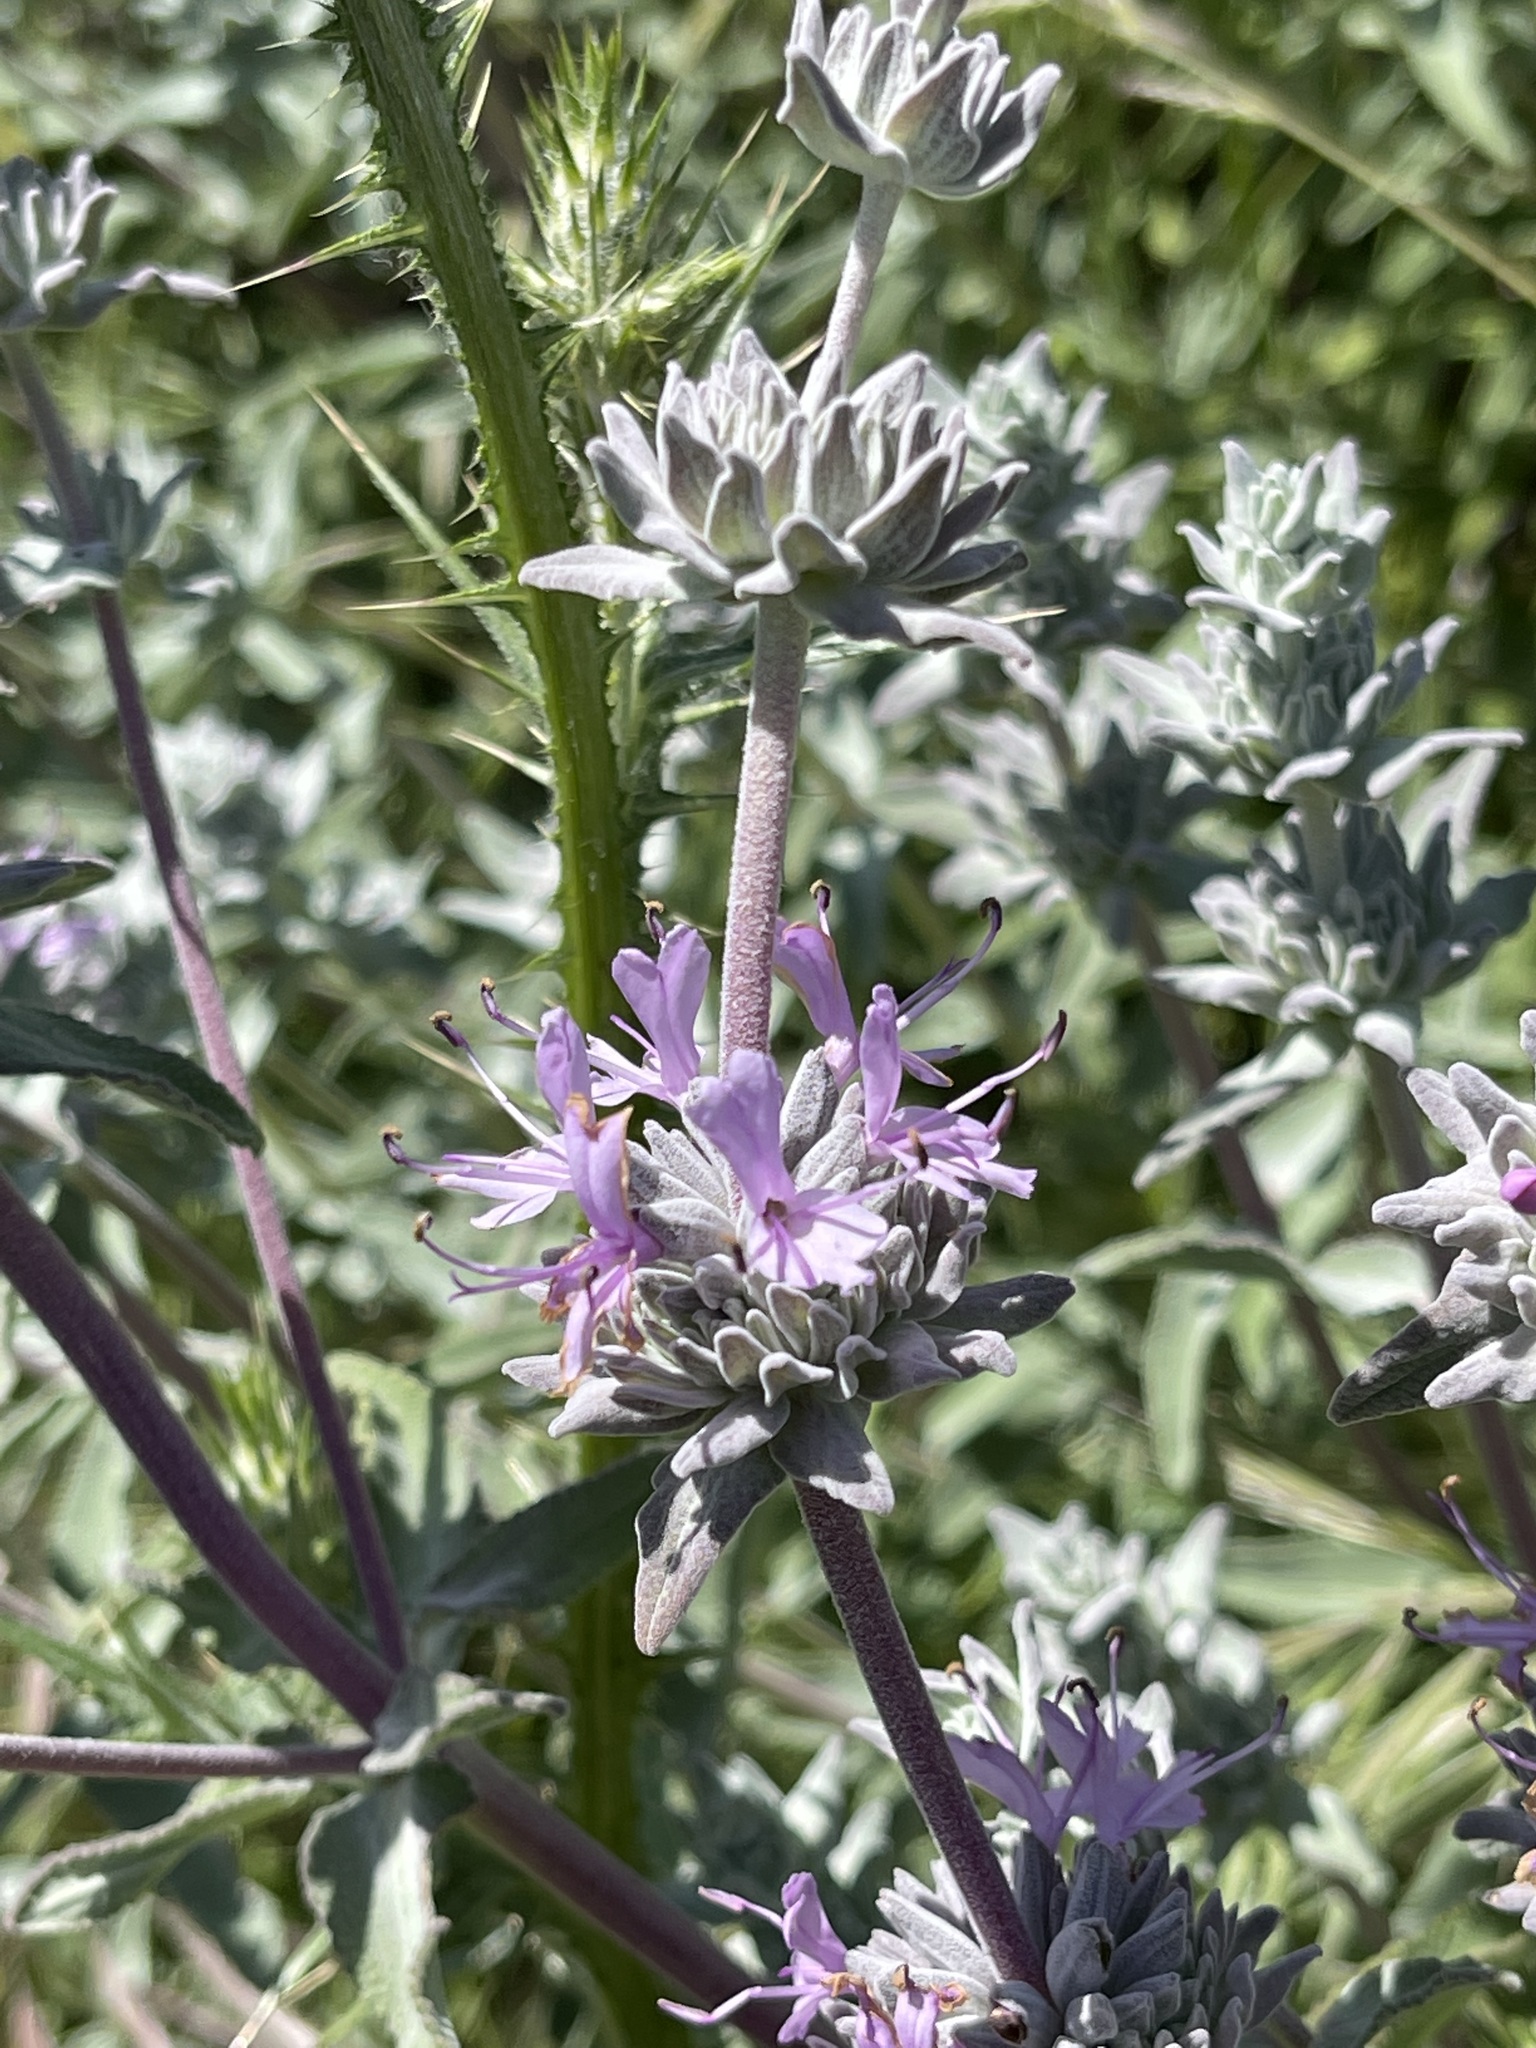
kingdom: Plantae
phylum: Tracheophyta
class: Magnoliopsida
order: Lamiales
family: Lamiaceae
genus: Salvia
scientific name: Salvia leucophylla
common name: Purple sage
